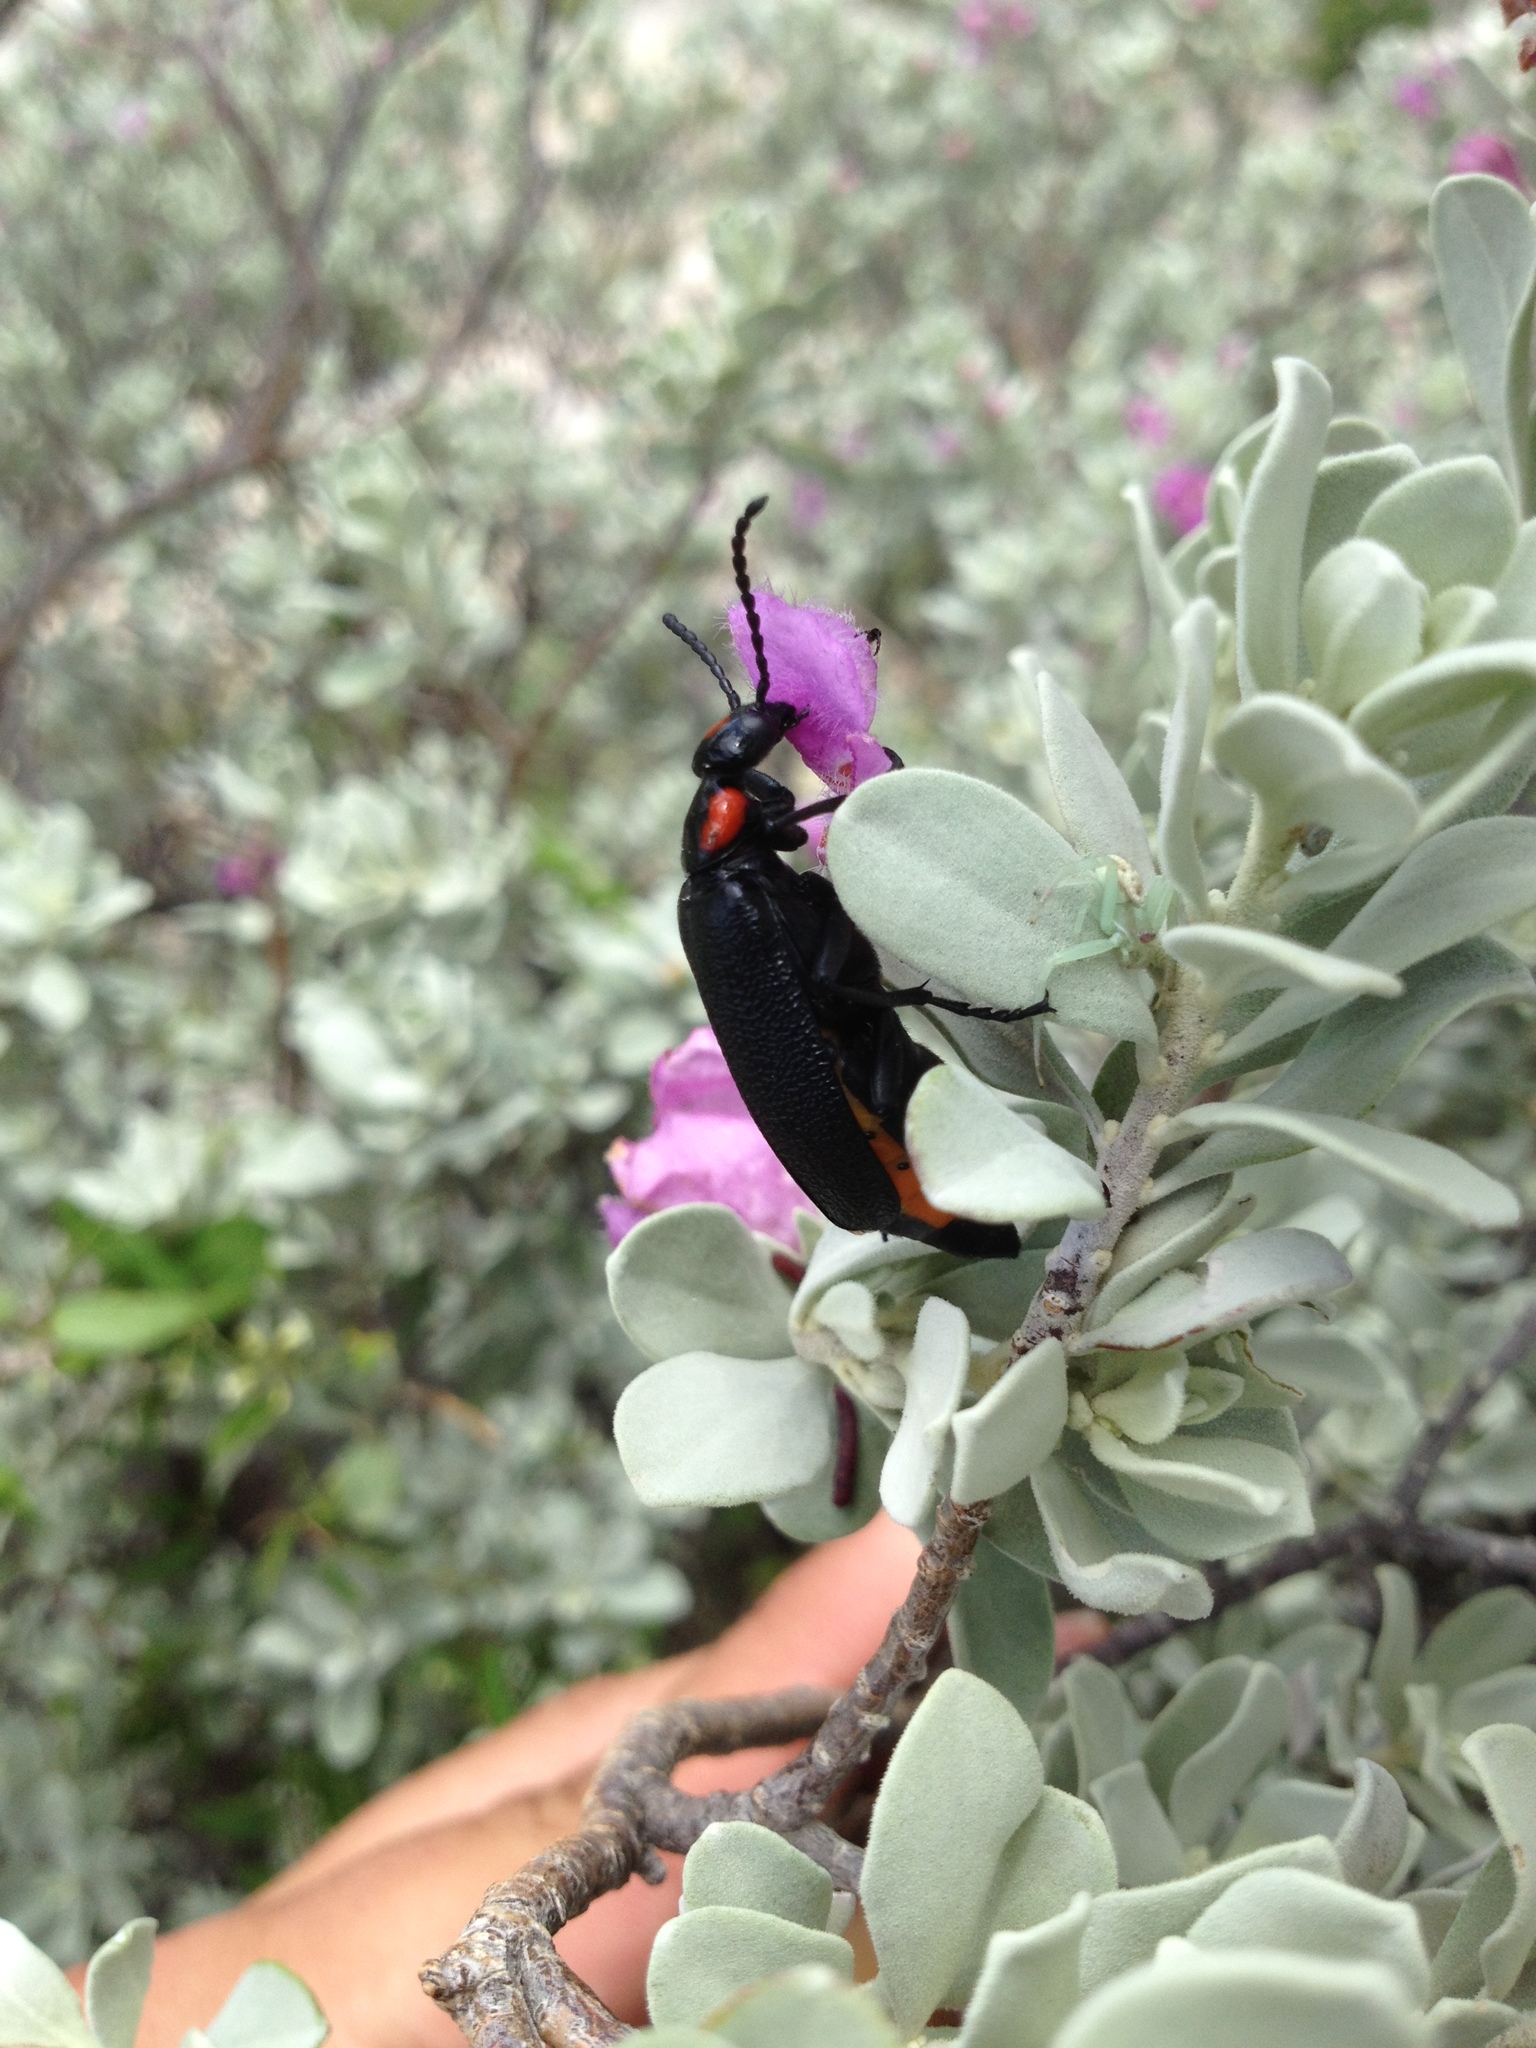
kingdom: Animalia
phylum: Arthropoda
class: Insecta
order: Coleoptera
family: Meloidae
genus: Lytta
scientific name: Lytta cribrata
